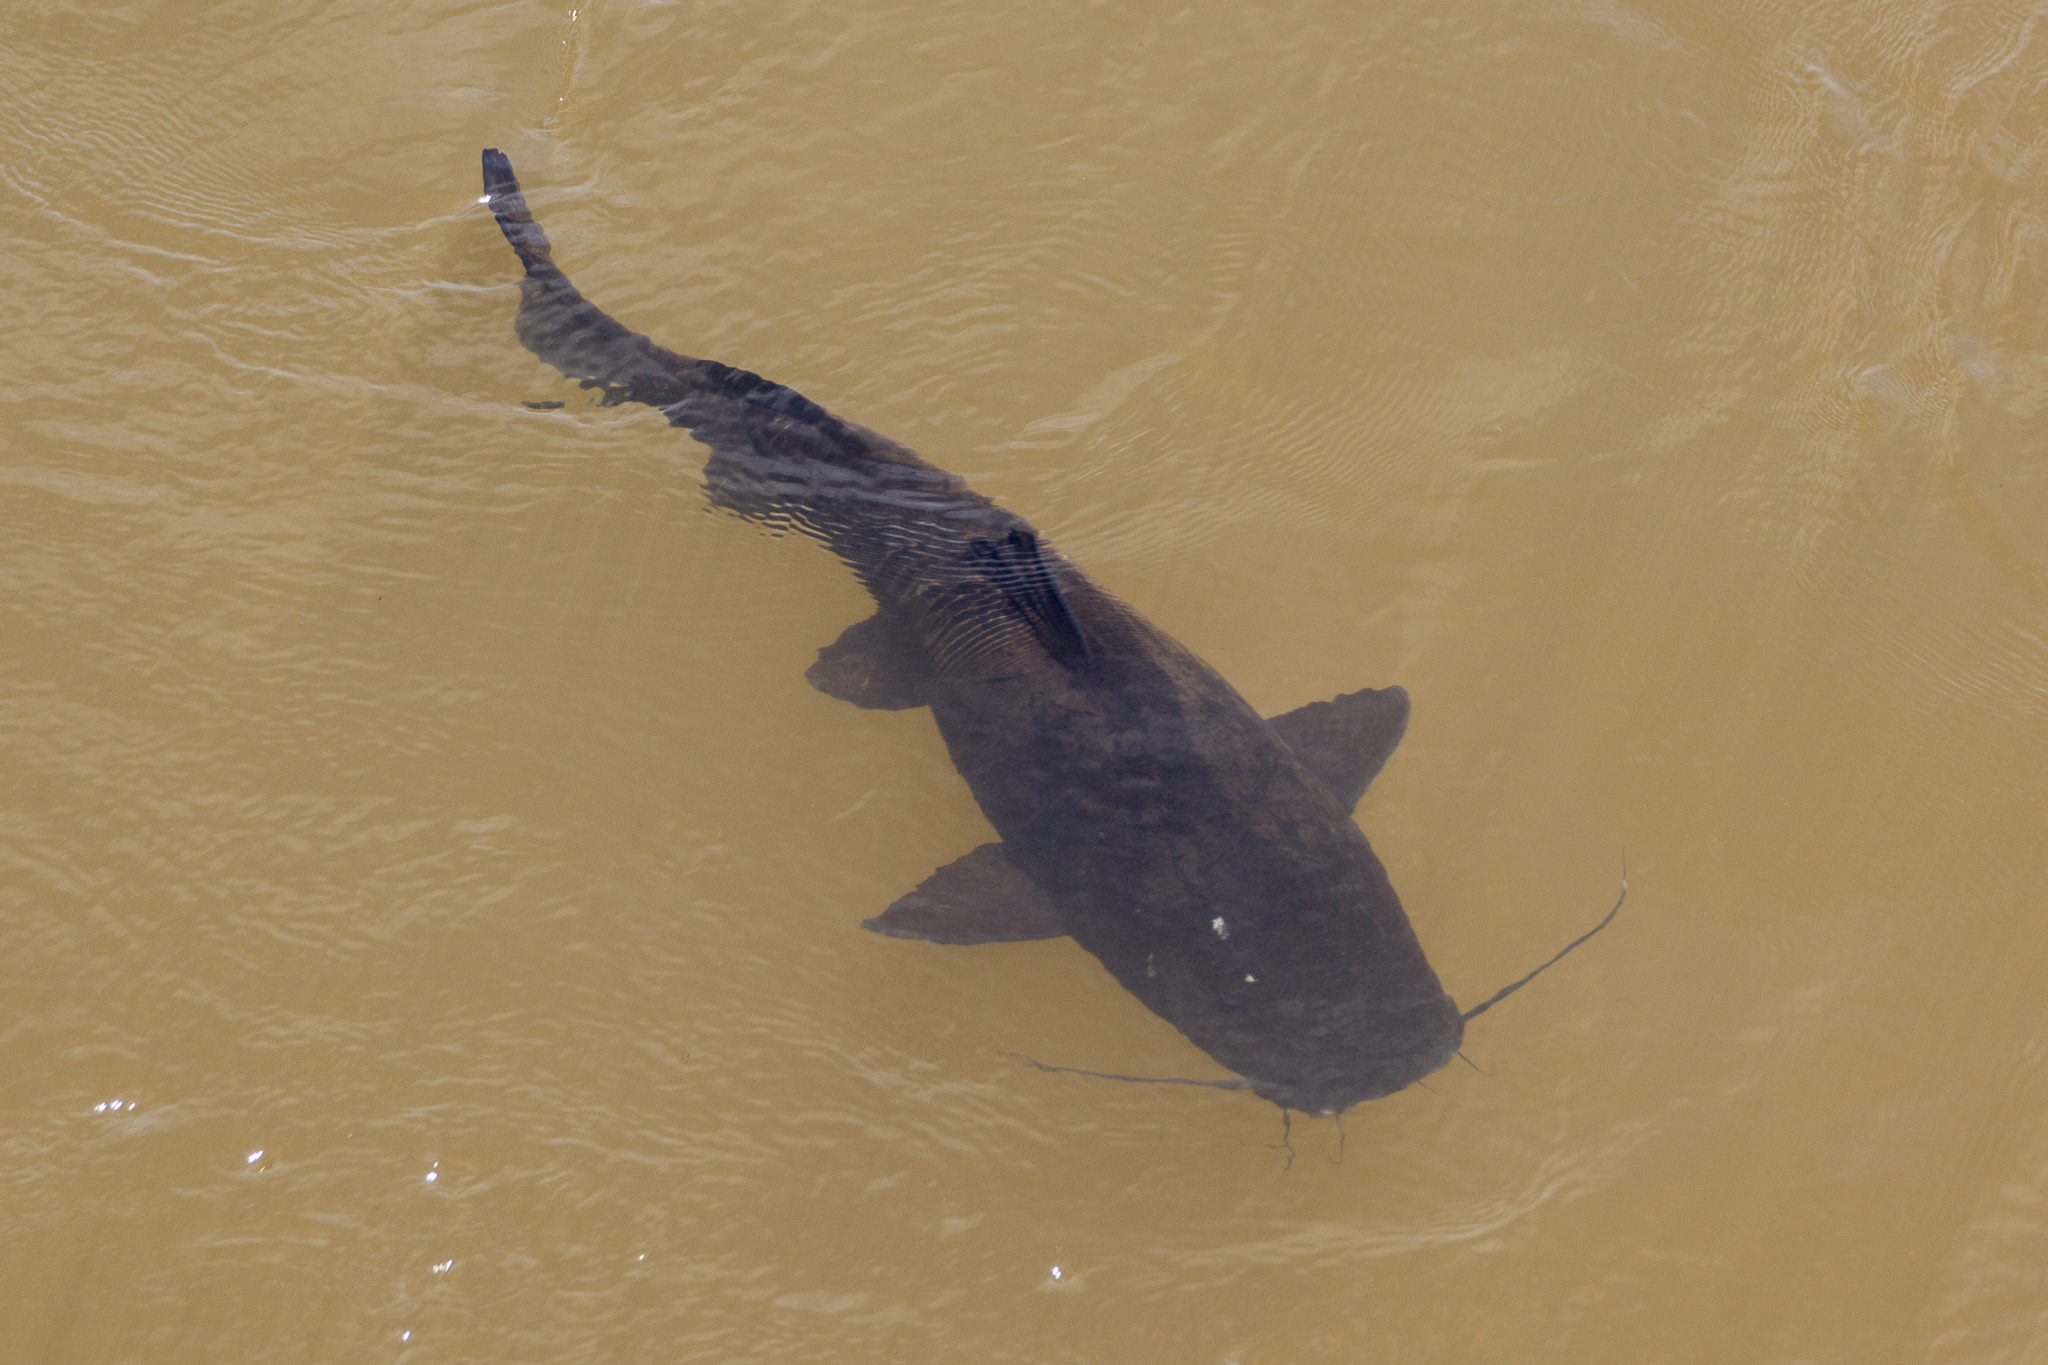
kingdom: Animalia
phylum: Chordata
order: Siluriformes
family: Pimelodidae
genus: Steindachneridion
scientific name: Steindachneridion melanodermatum
